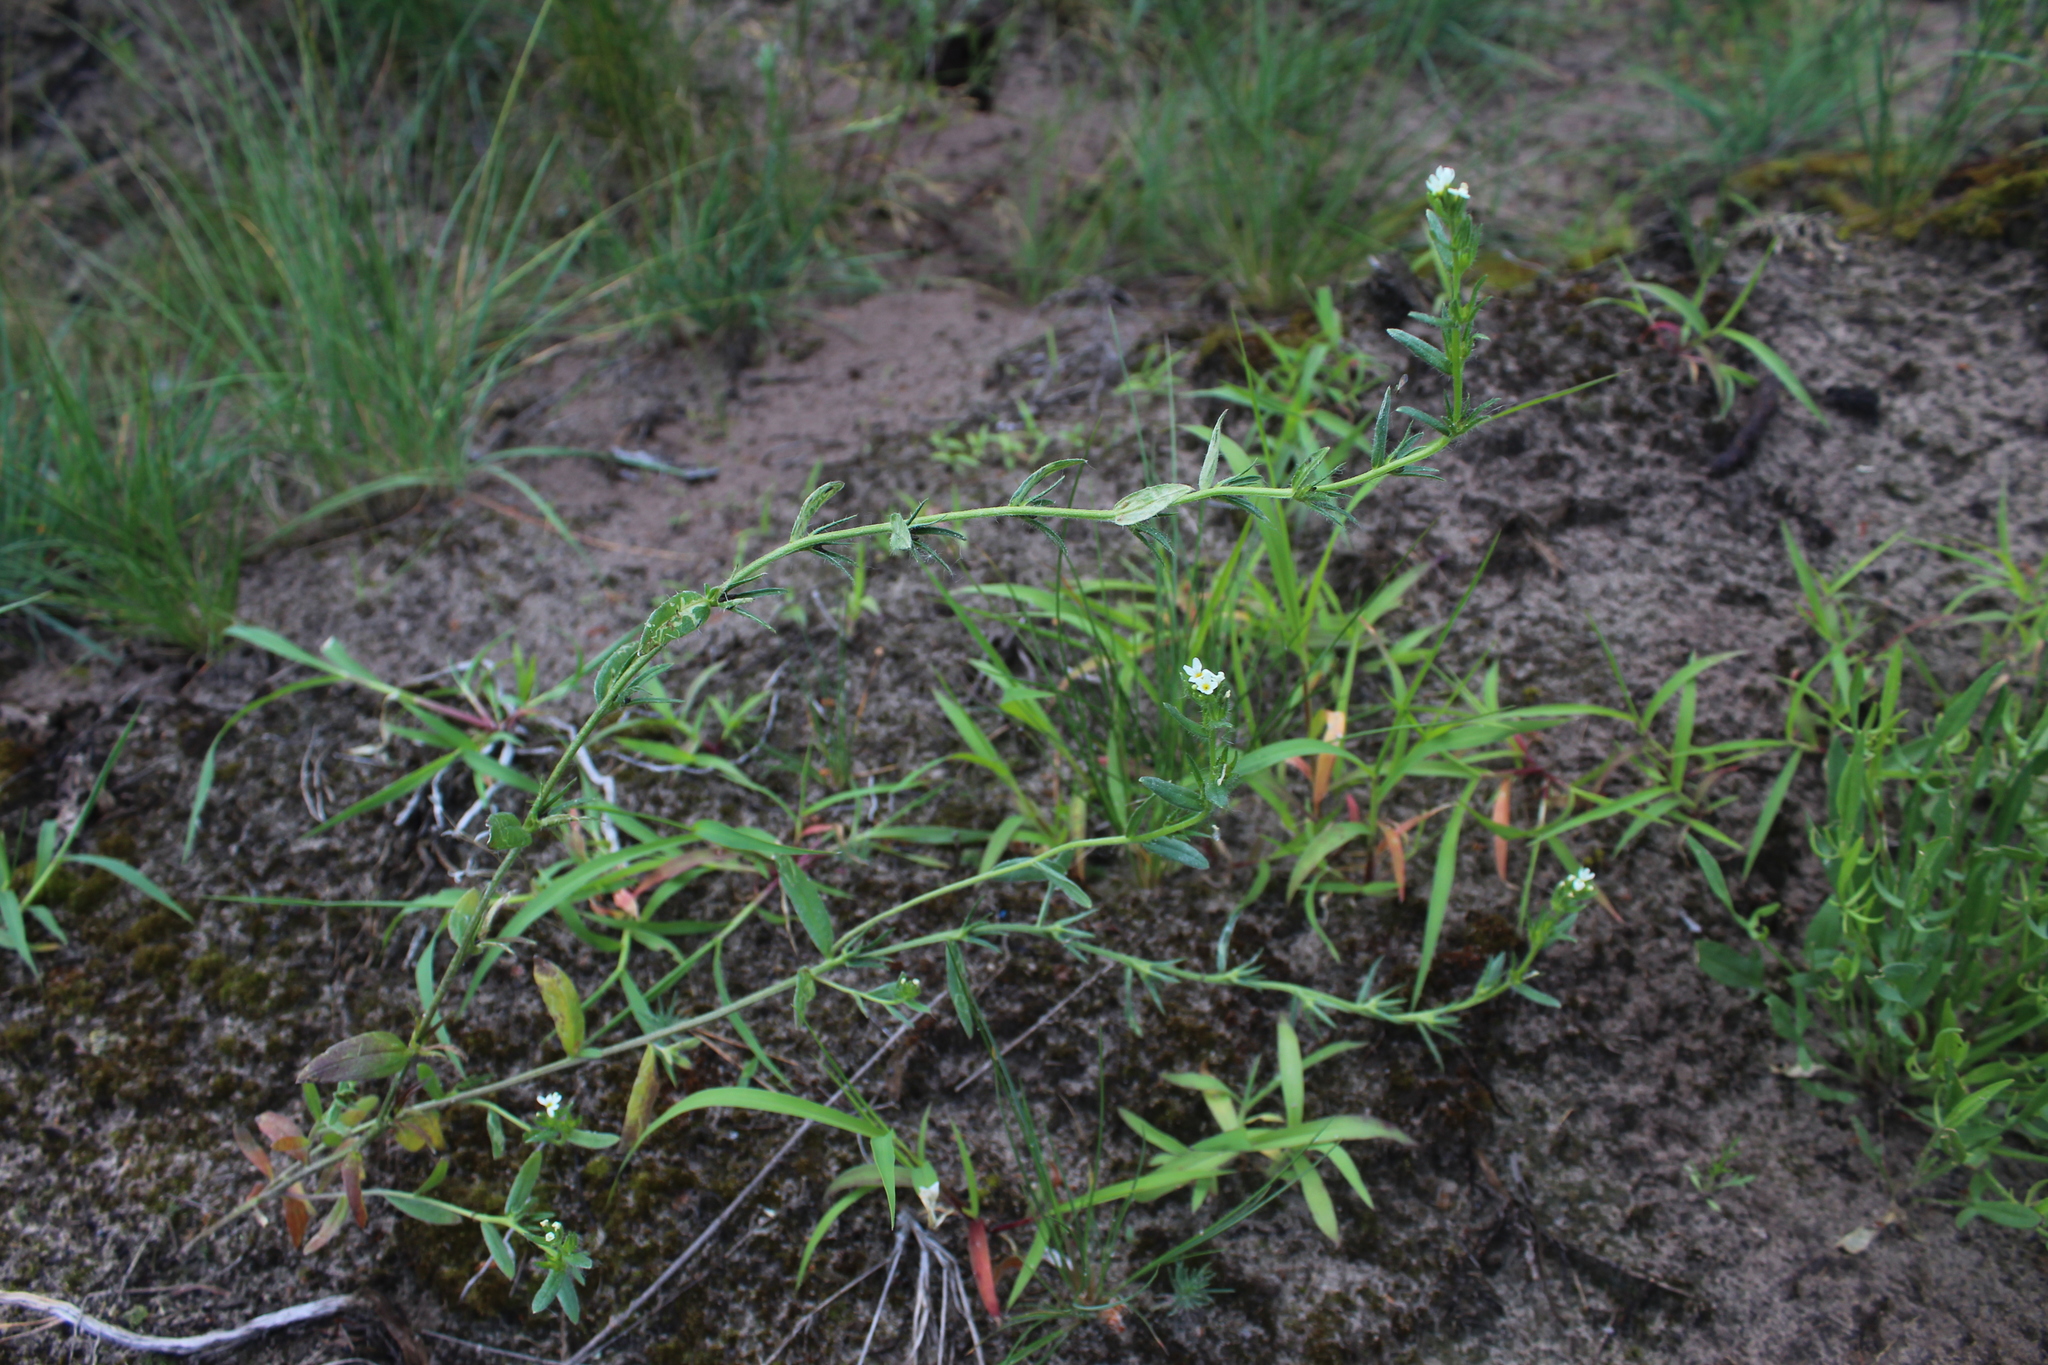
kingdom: Plantae
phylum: Tracheophyta
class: Magnoliopsida
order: Boraginales
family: Boraginaceae
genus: Buglossoides
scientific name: Buglossoides czernjajevii
